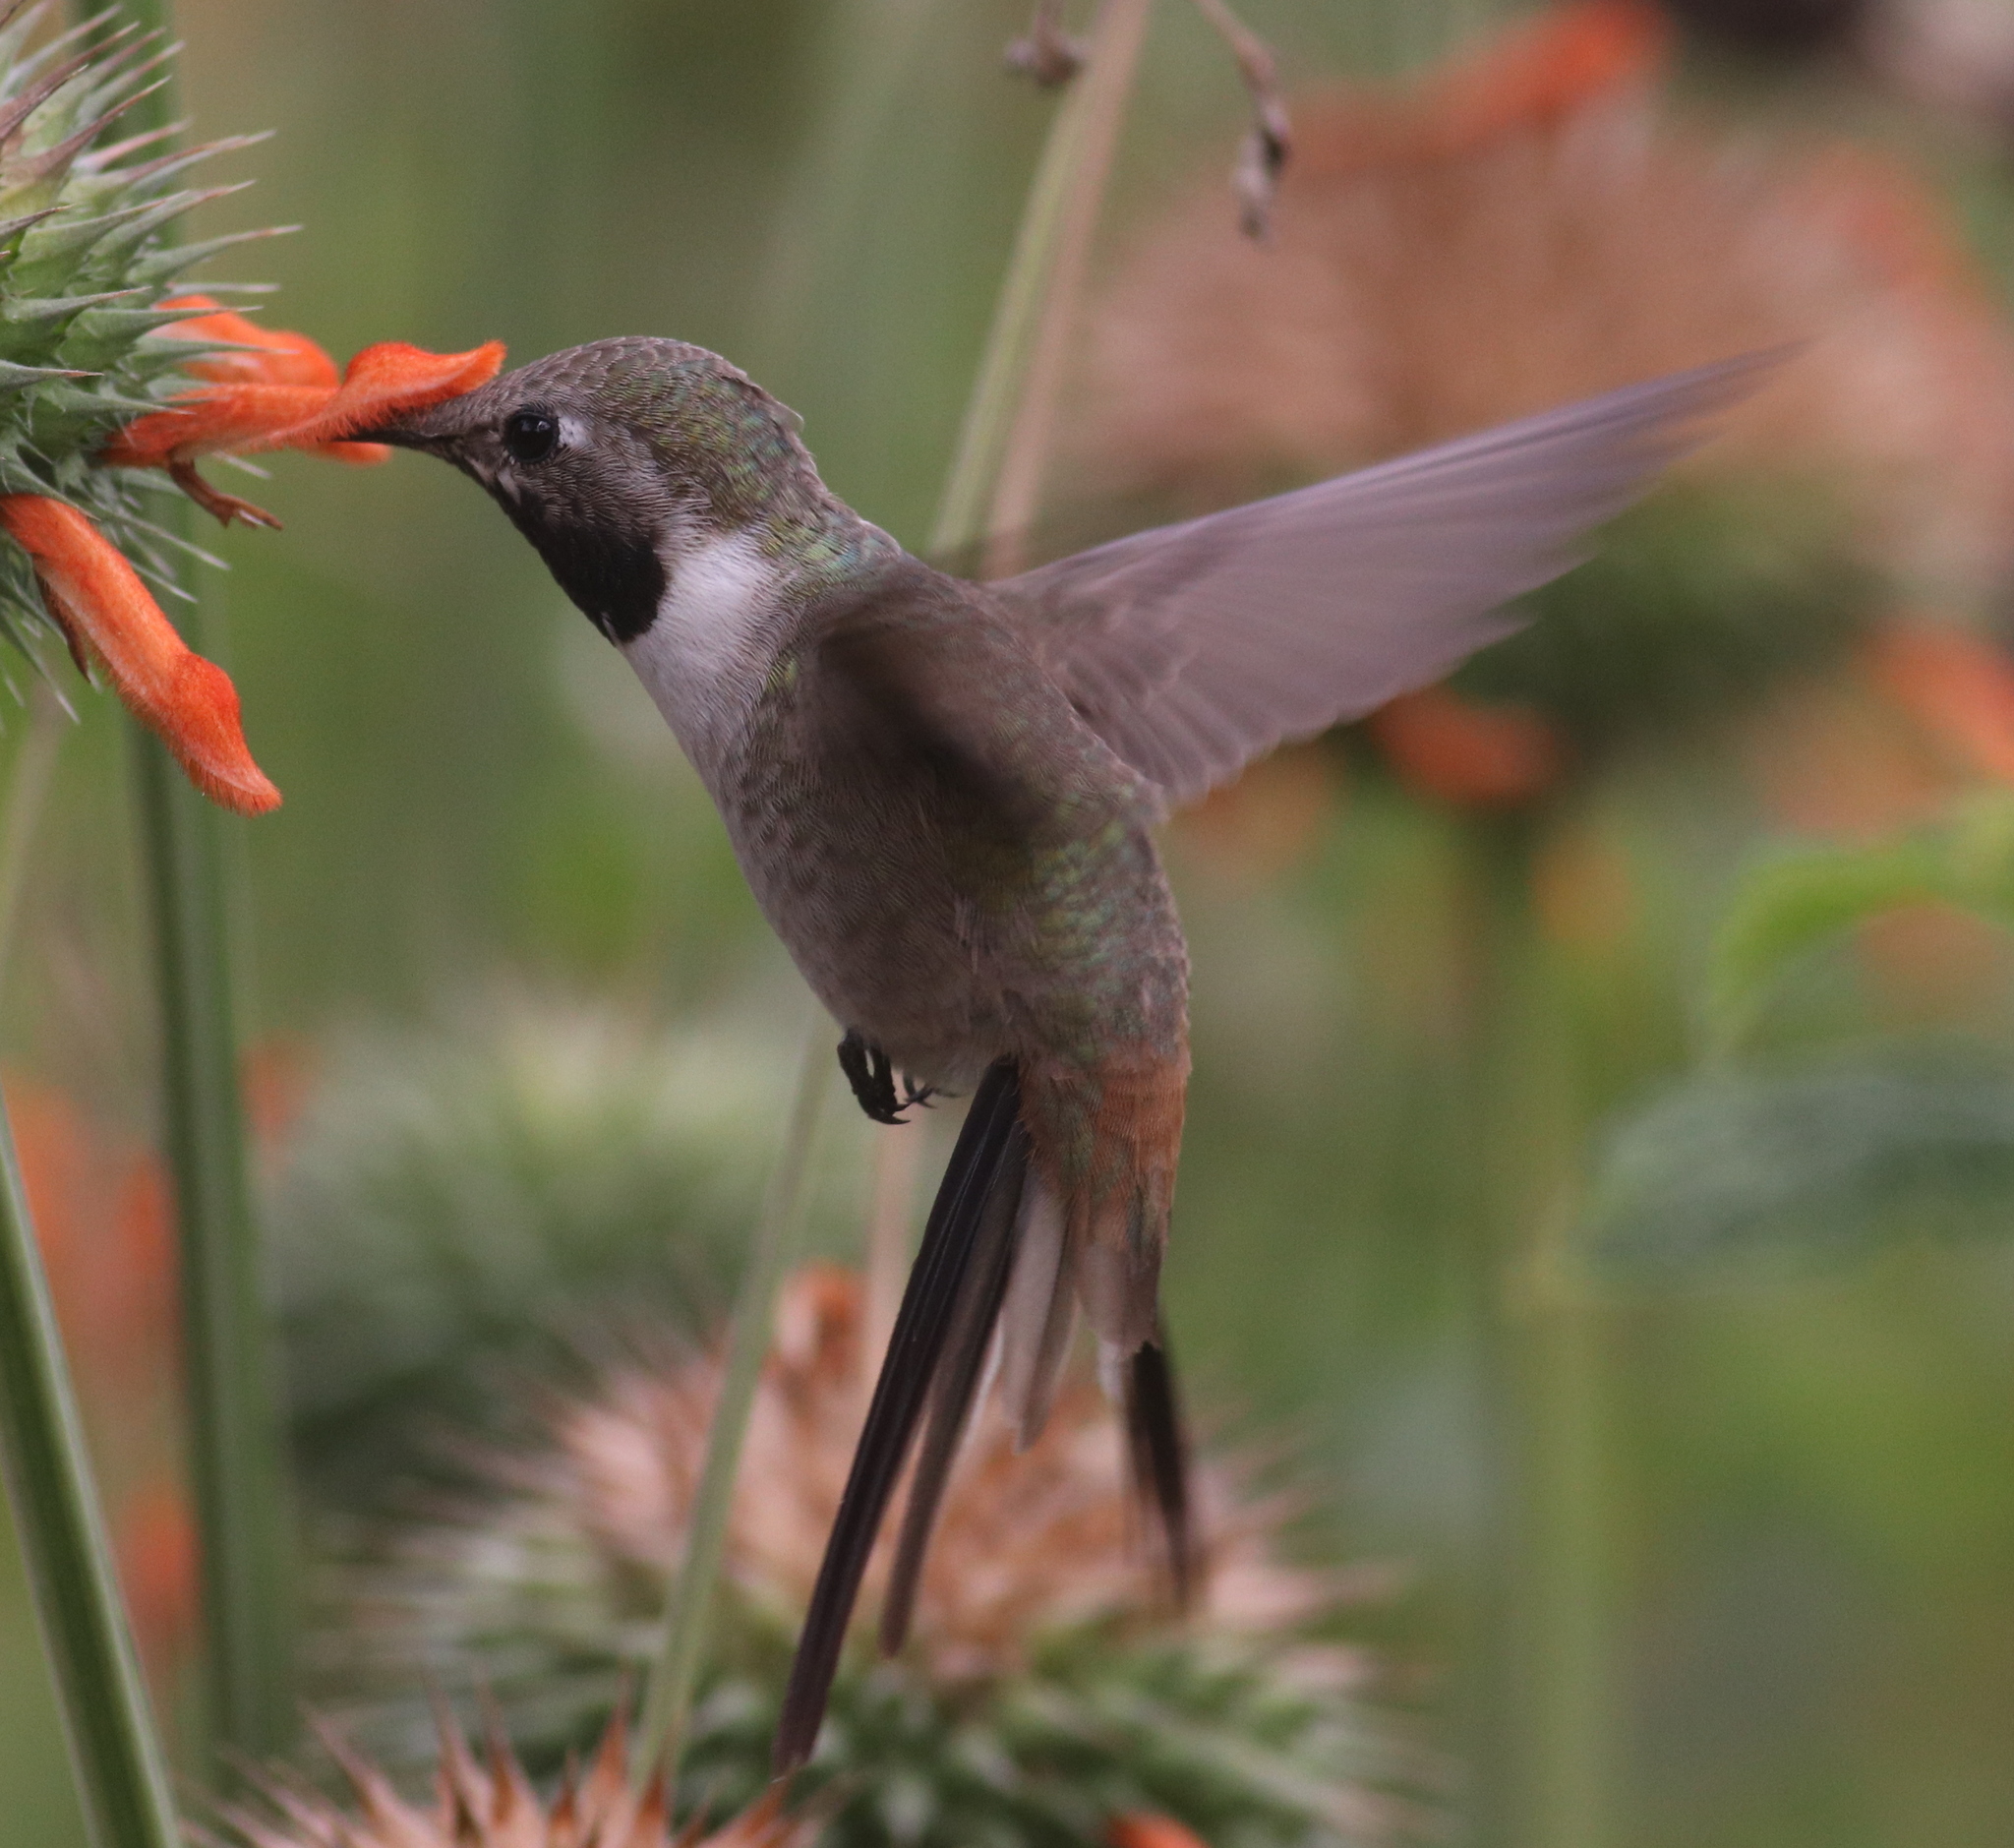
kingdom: Animalia
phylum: Chordata
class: Aves
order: Apodiformes
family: Trochilidae
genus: Rhodopis
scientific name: Rhodopis vesper
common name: Oasis hummingbird
